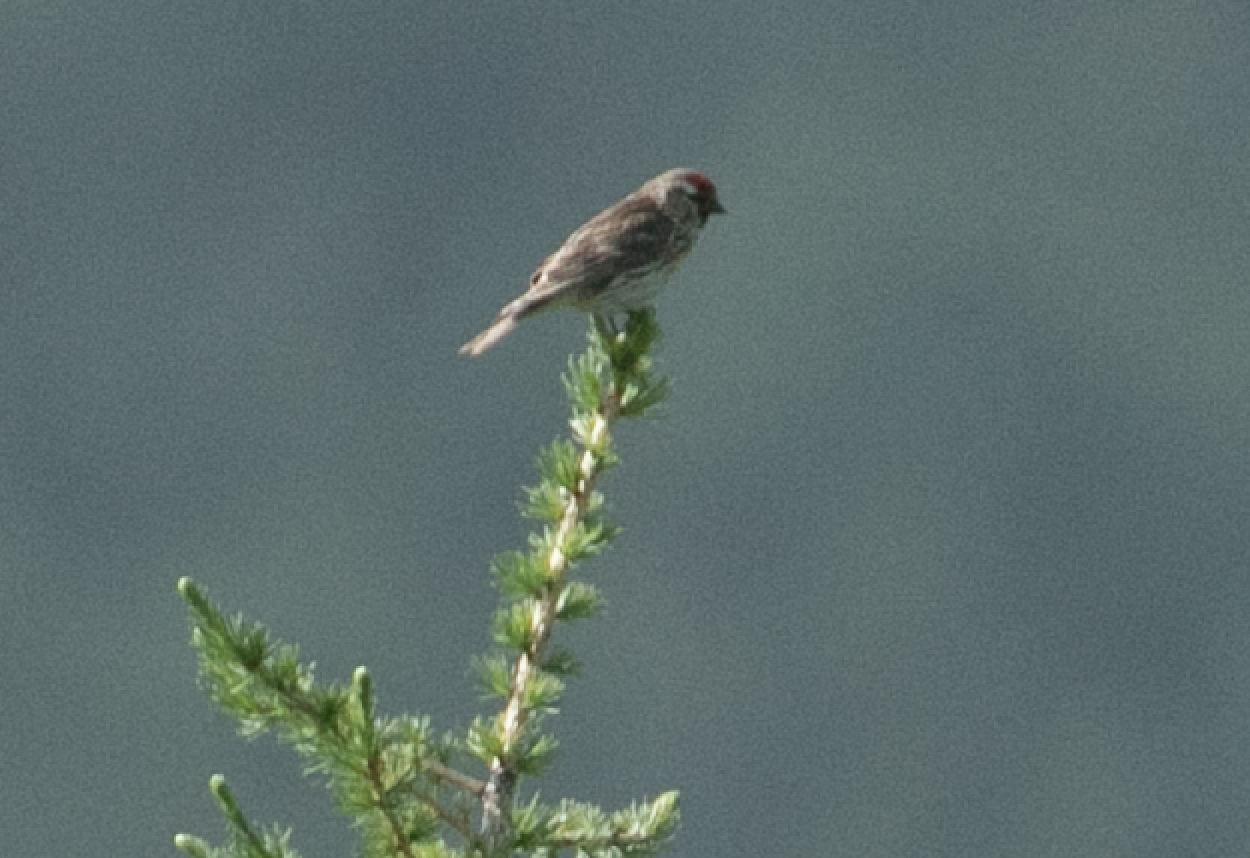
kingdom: Animalia
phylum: Chordata
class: Aves
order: Passeriformes
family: Fringillidae
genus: Acanthis
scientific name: Acanthis flammea
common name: Common redpoll
